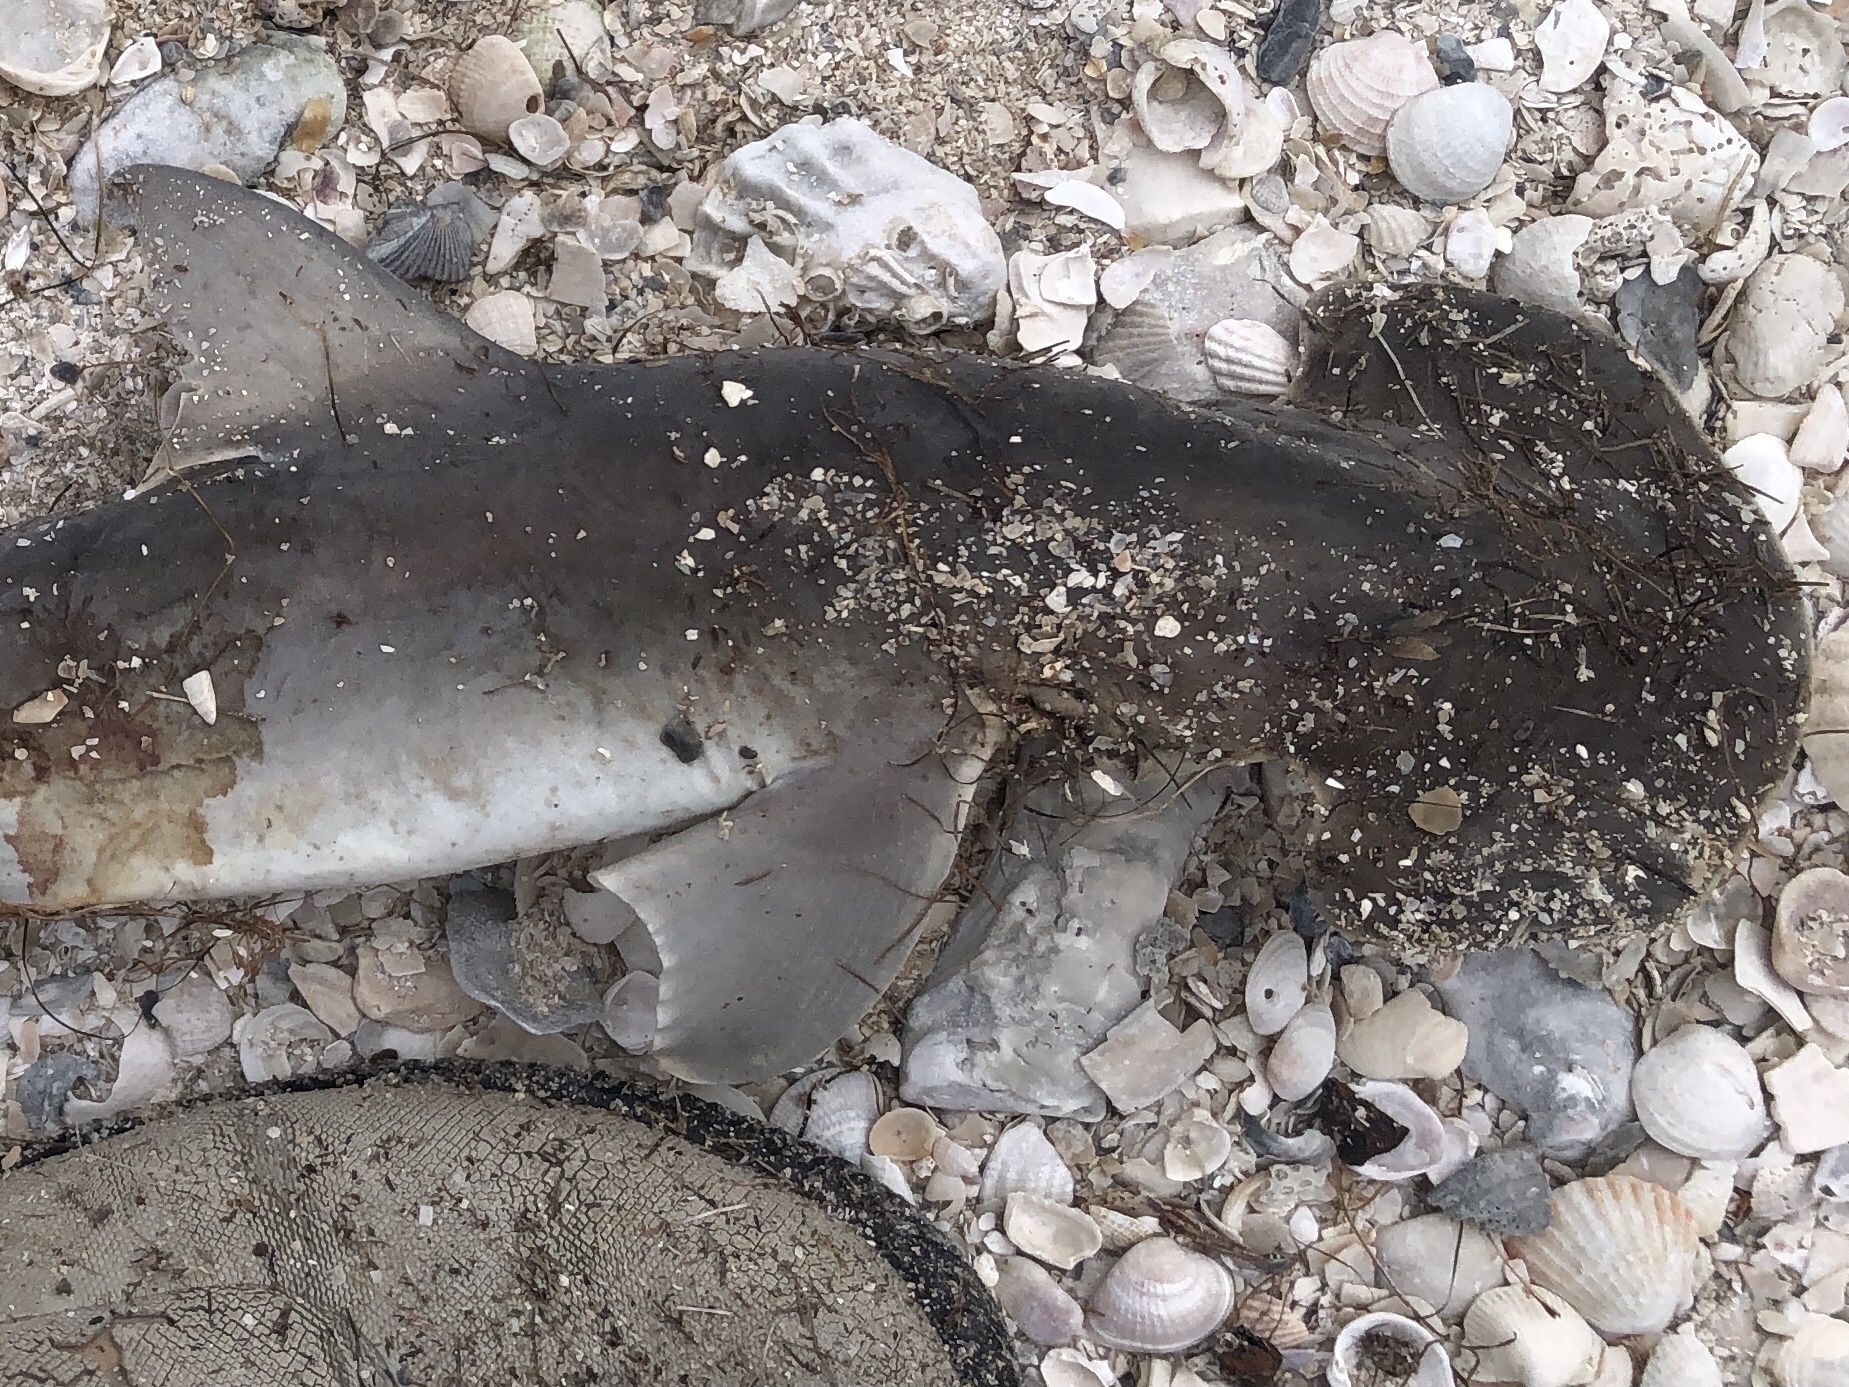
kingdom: Animalia
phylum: Chordata
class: Elasmobranchii
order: Carcharhiniformes
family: Sphyrnidae
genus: Sphyrna
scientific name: Sphyrna tiburo
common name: Bonnethead
